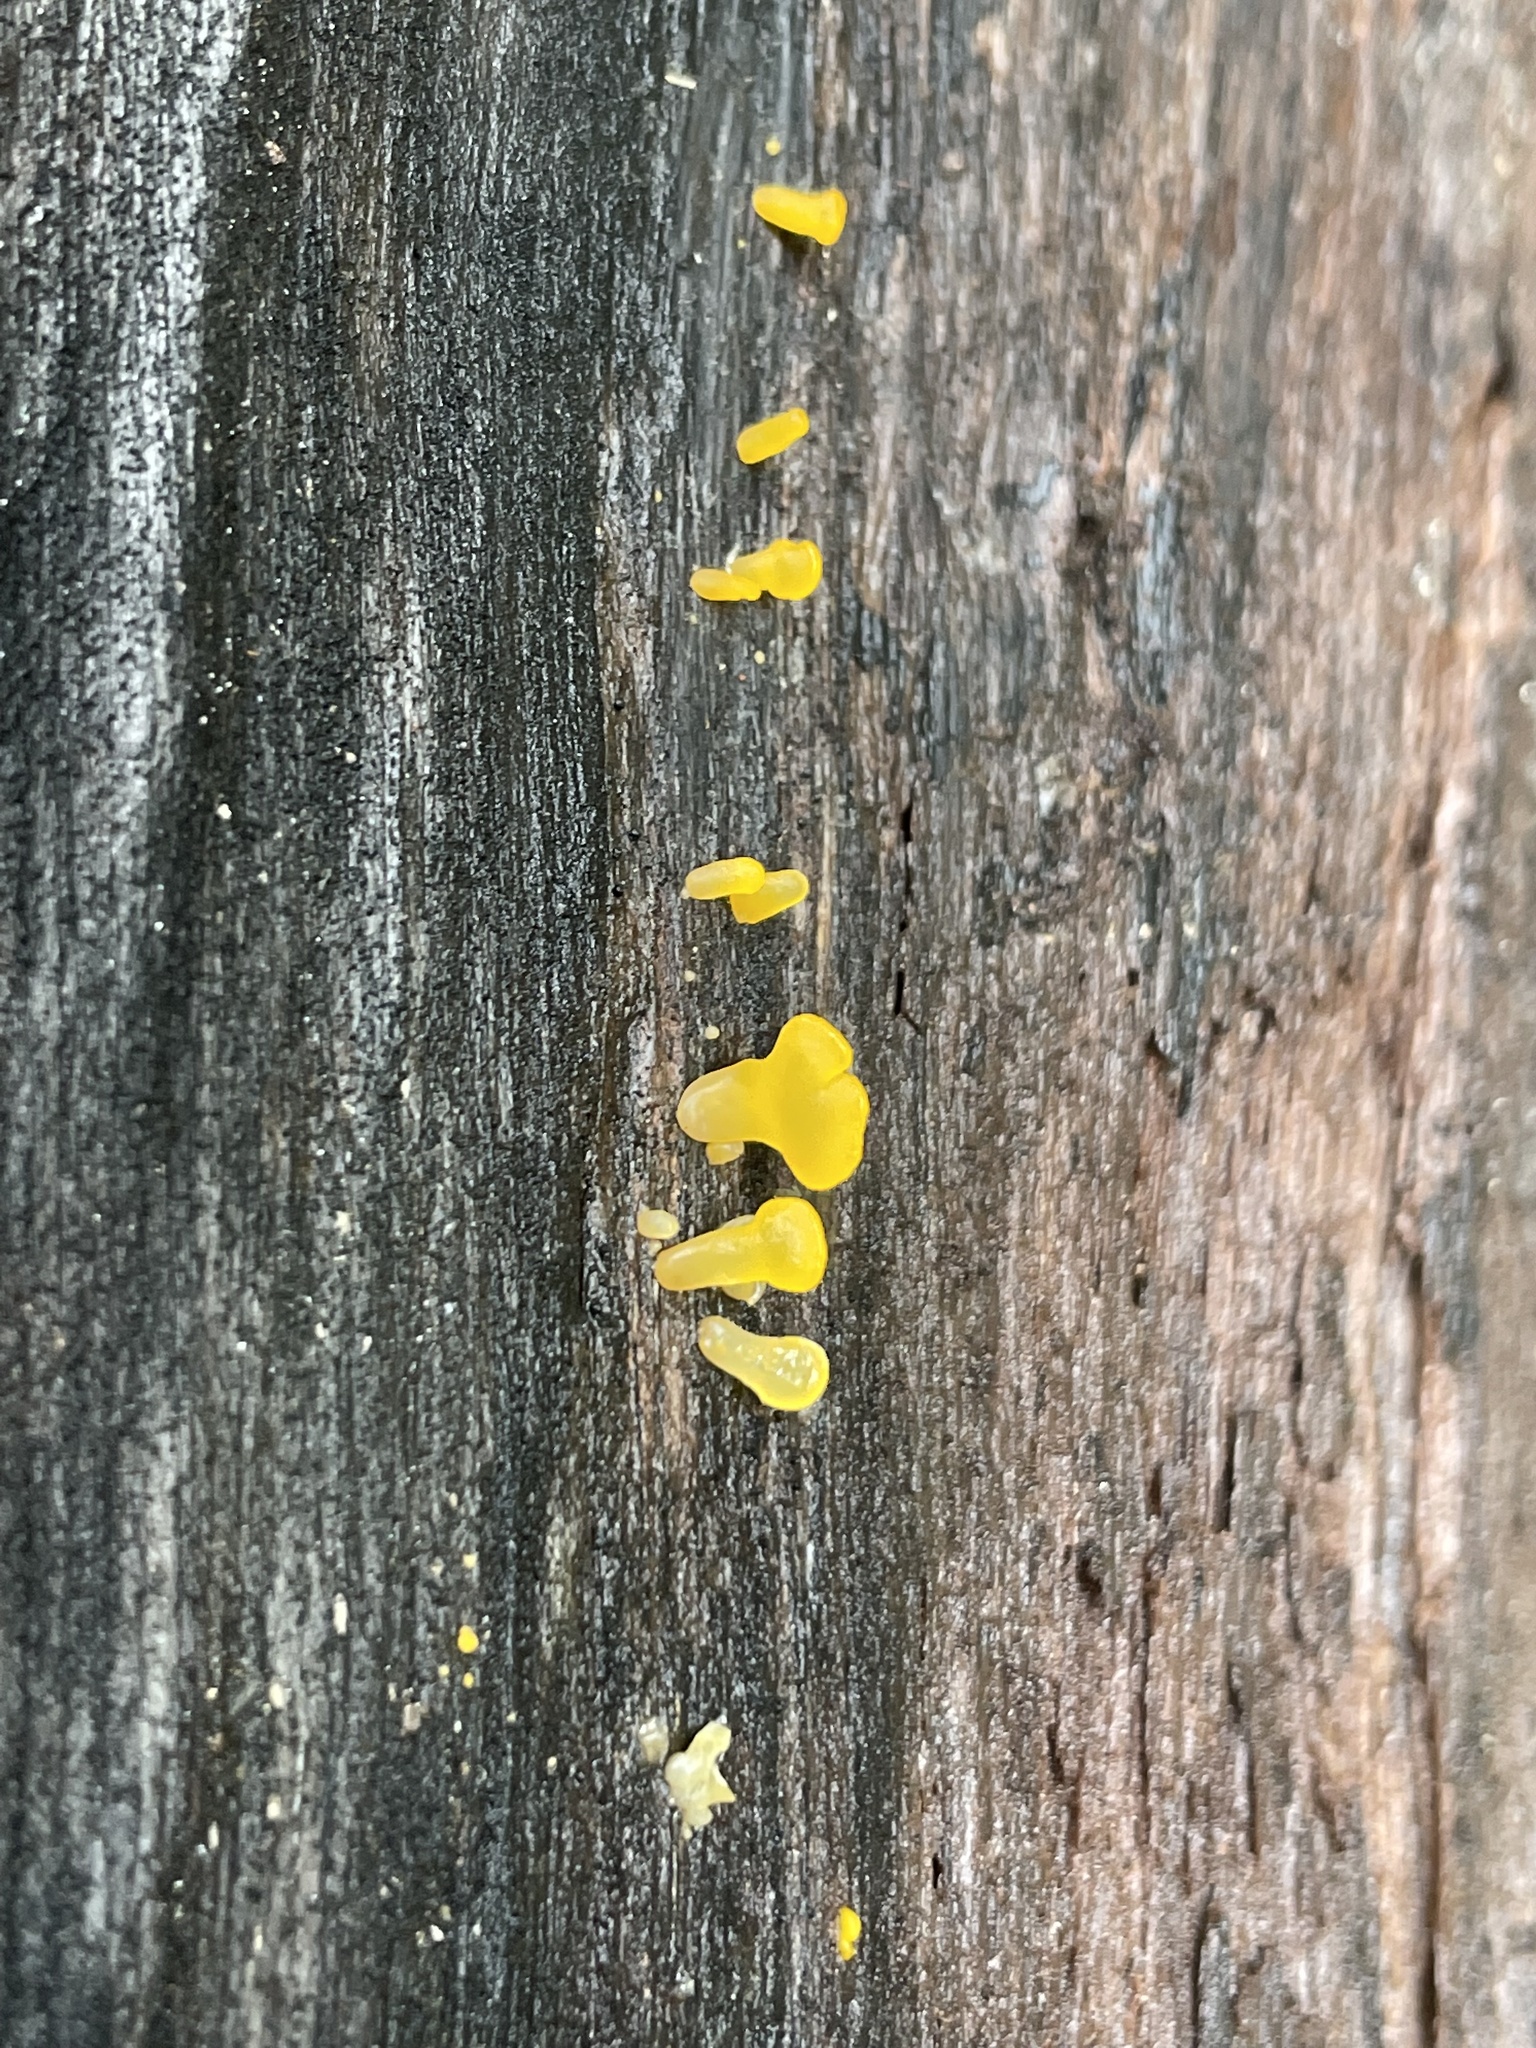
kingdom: Fungi
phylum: Basidiomycota
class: Dacrymycetes
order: Dacrymycetales
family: Dacrymycetaceae
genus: Dacrymyces
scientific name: Dacrymyces spathularius
